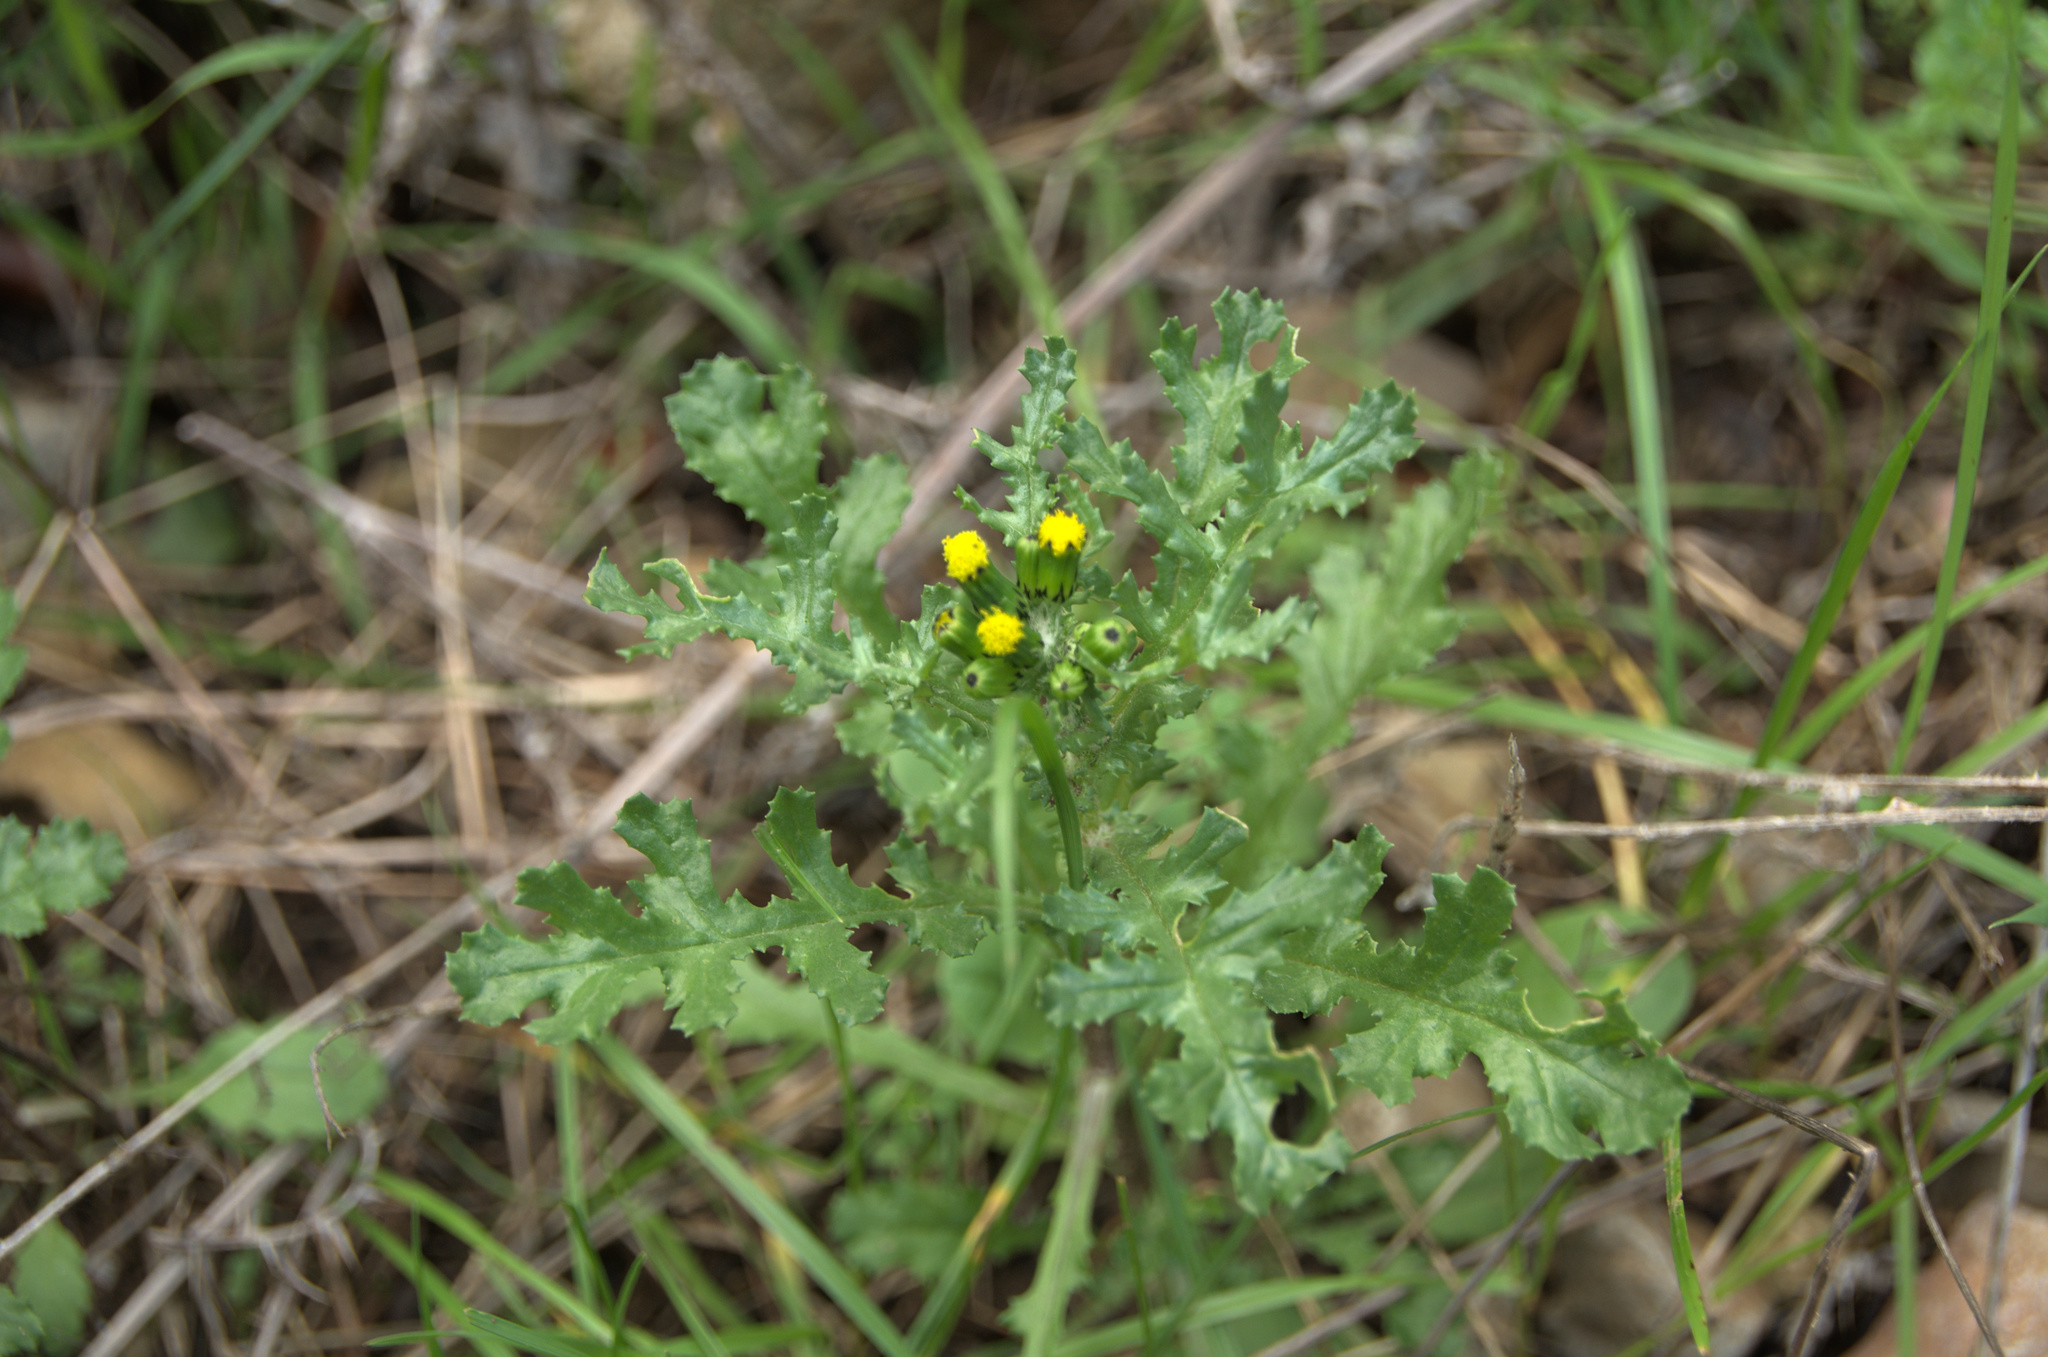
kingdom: Plantae
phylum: Tracheophyta
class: Magnoliopsida
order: Asterales
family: Asteraceae
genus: Senecio
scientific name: Senecio vulgaris
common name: Old-man-in-the-spring
